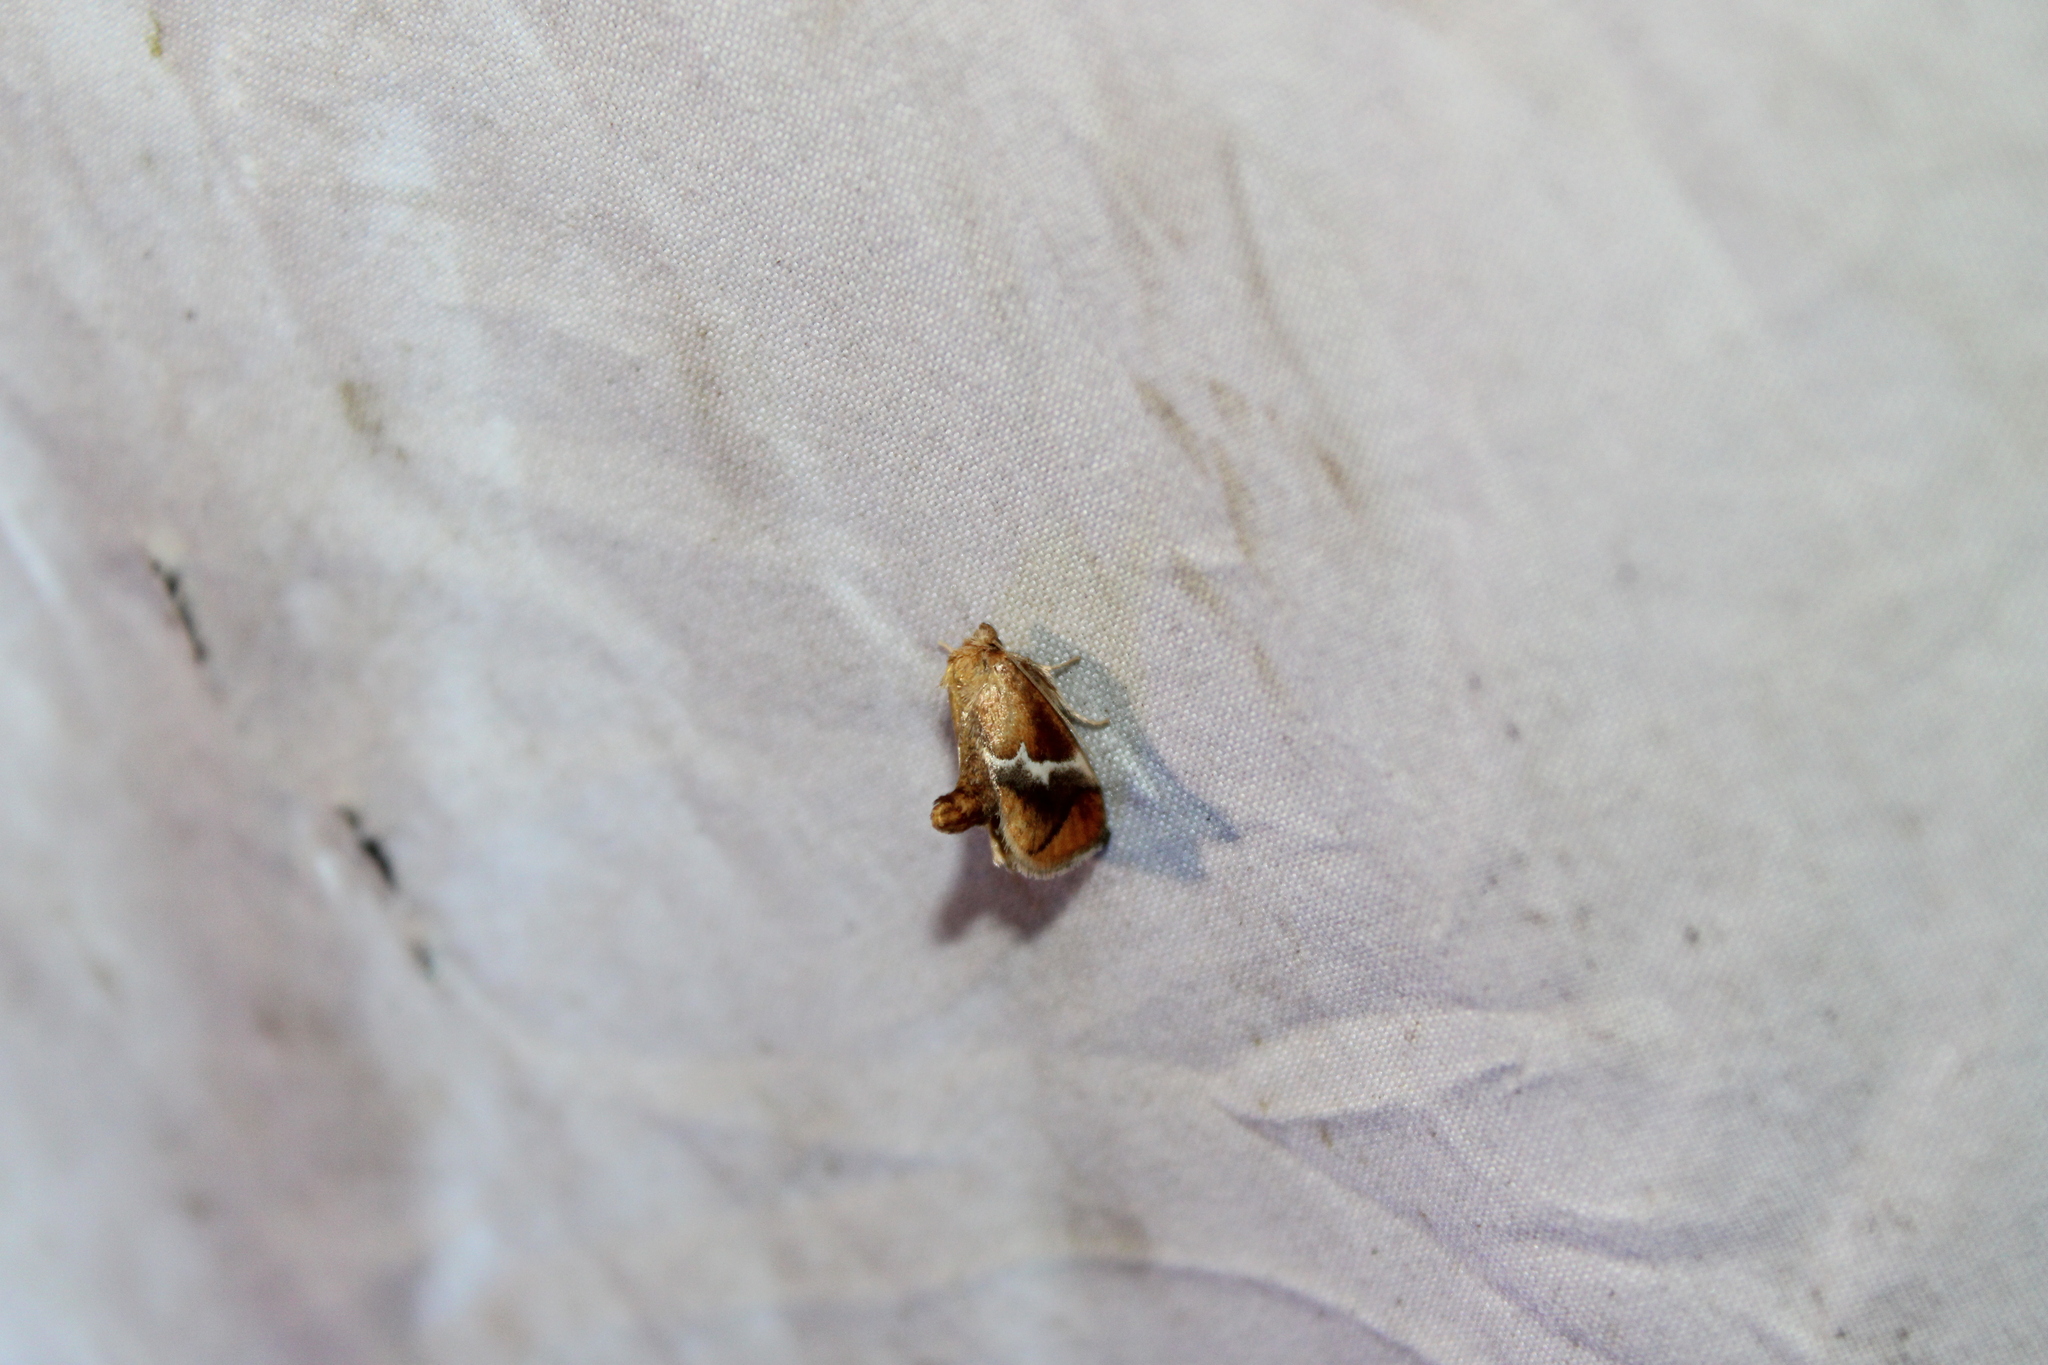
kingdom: Animalia
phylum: Arthropoda
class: Insecta
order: Lepidoptera
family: Limacodidae
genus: Lithacodes
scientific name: Lithacodes fasciola
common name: Yellow-shouldered slug moth
